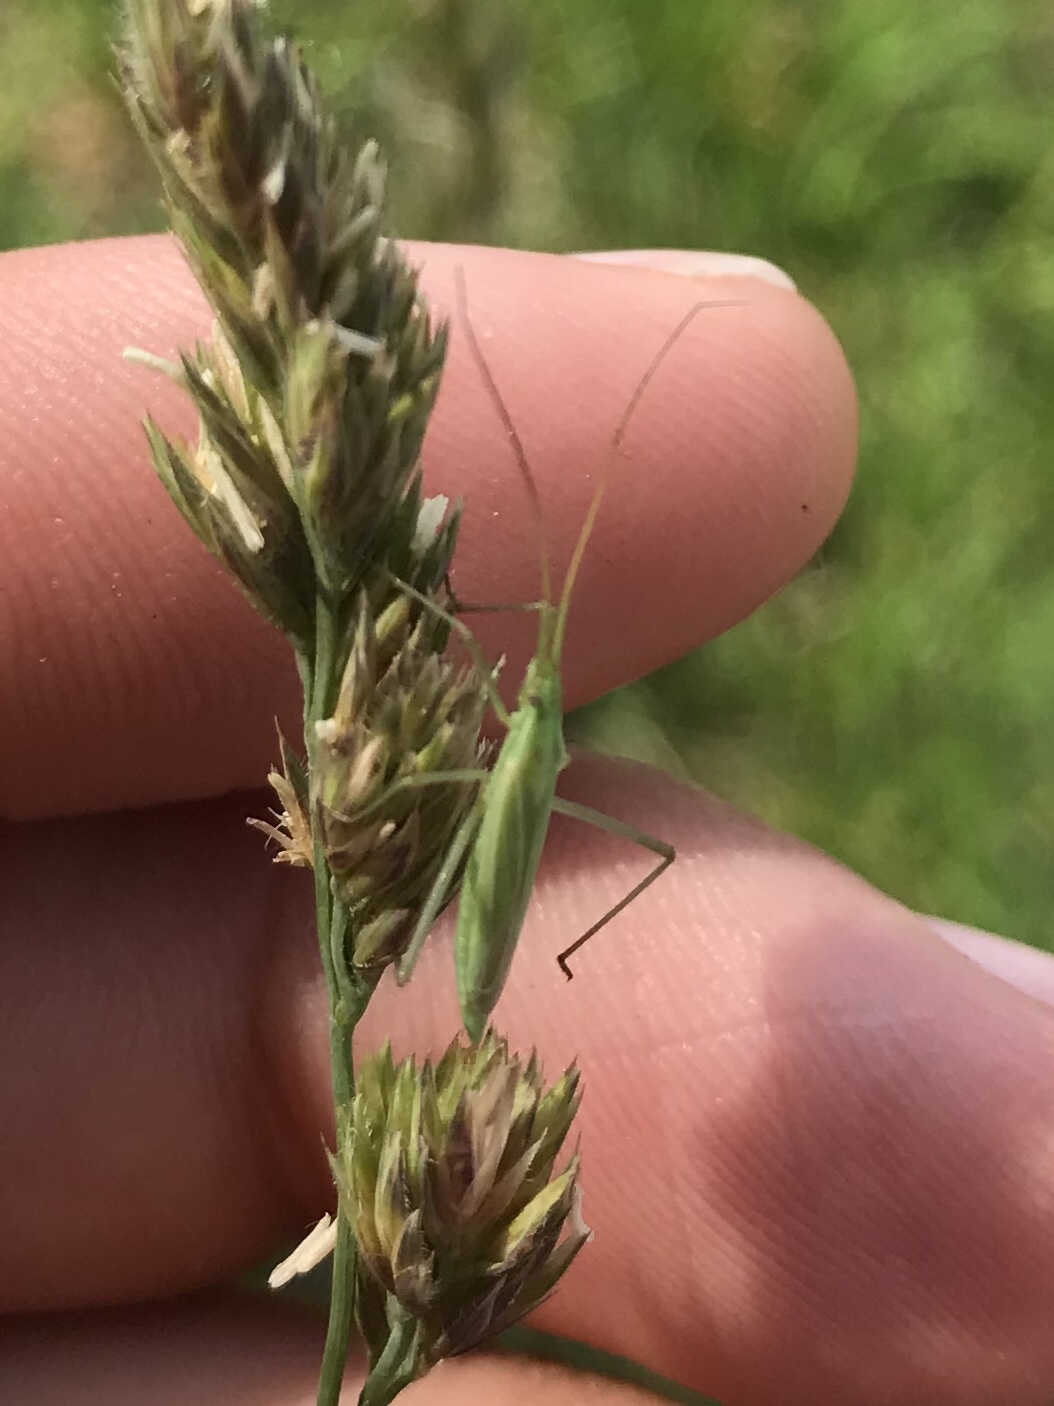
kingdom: Animalia
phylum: Arthropoda
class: Insecta
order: Hemiptera
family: Miridae
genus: Megaloceroea
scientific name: Megaloceroea recticornis
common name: Plant bug
